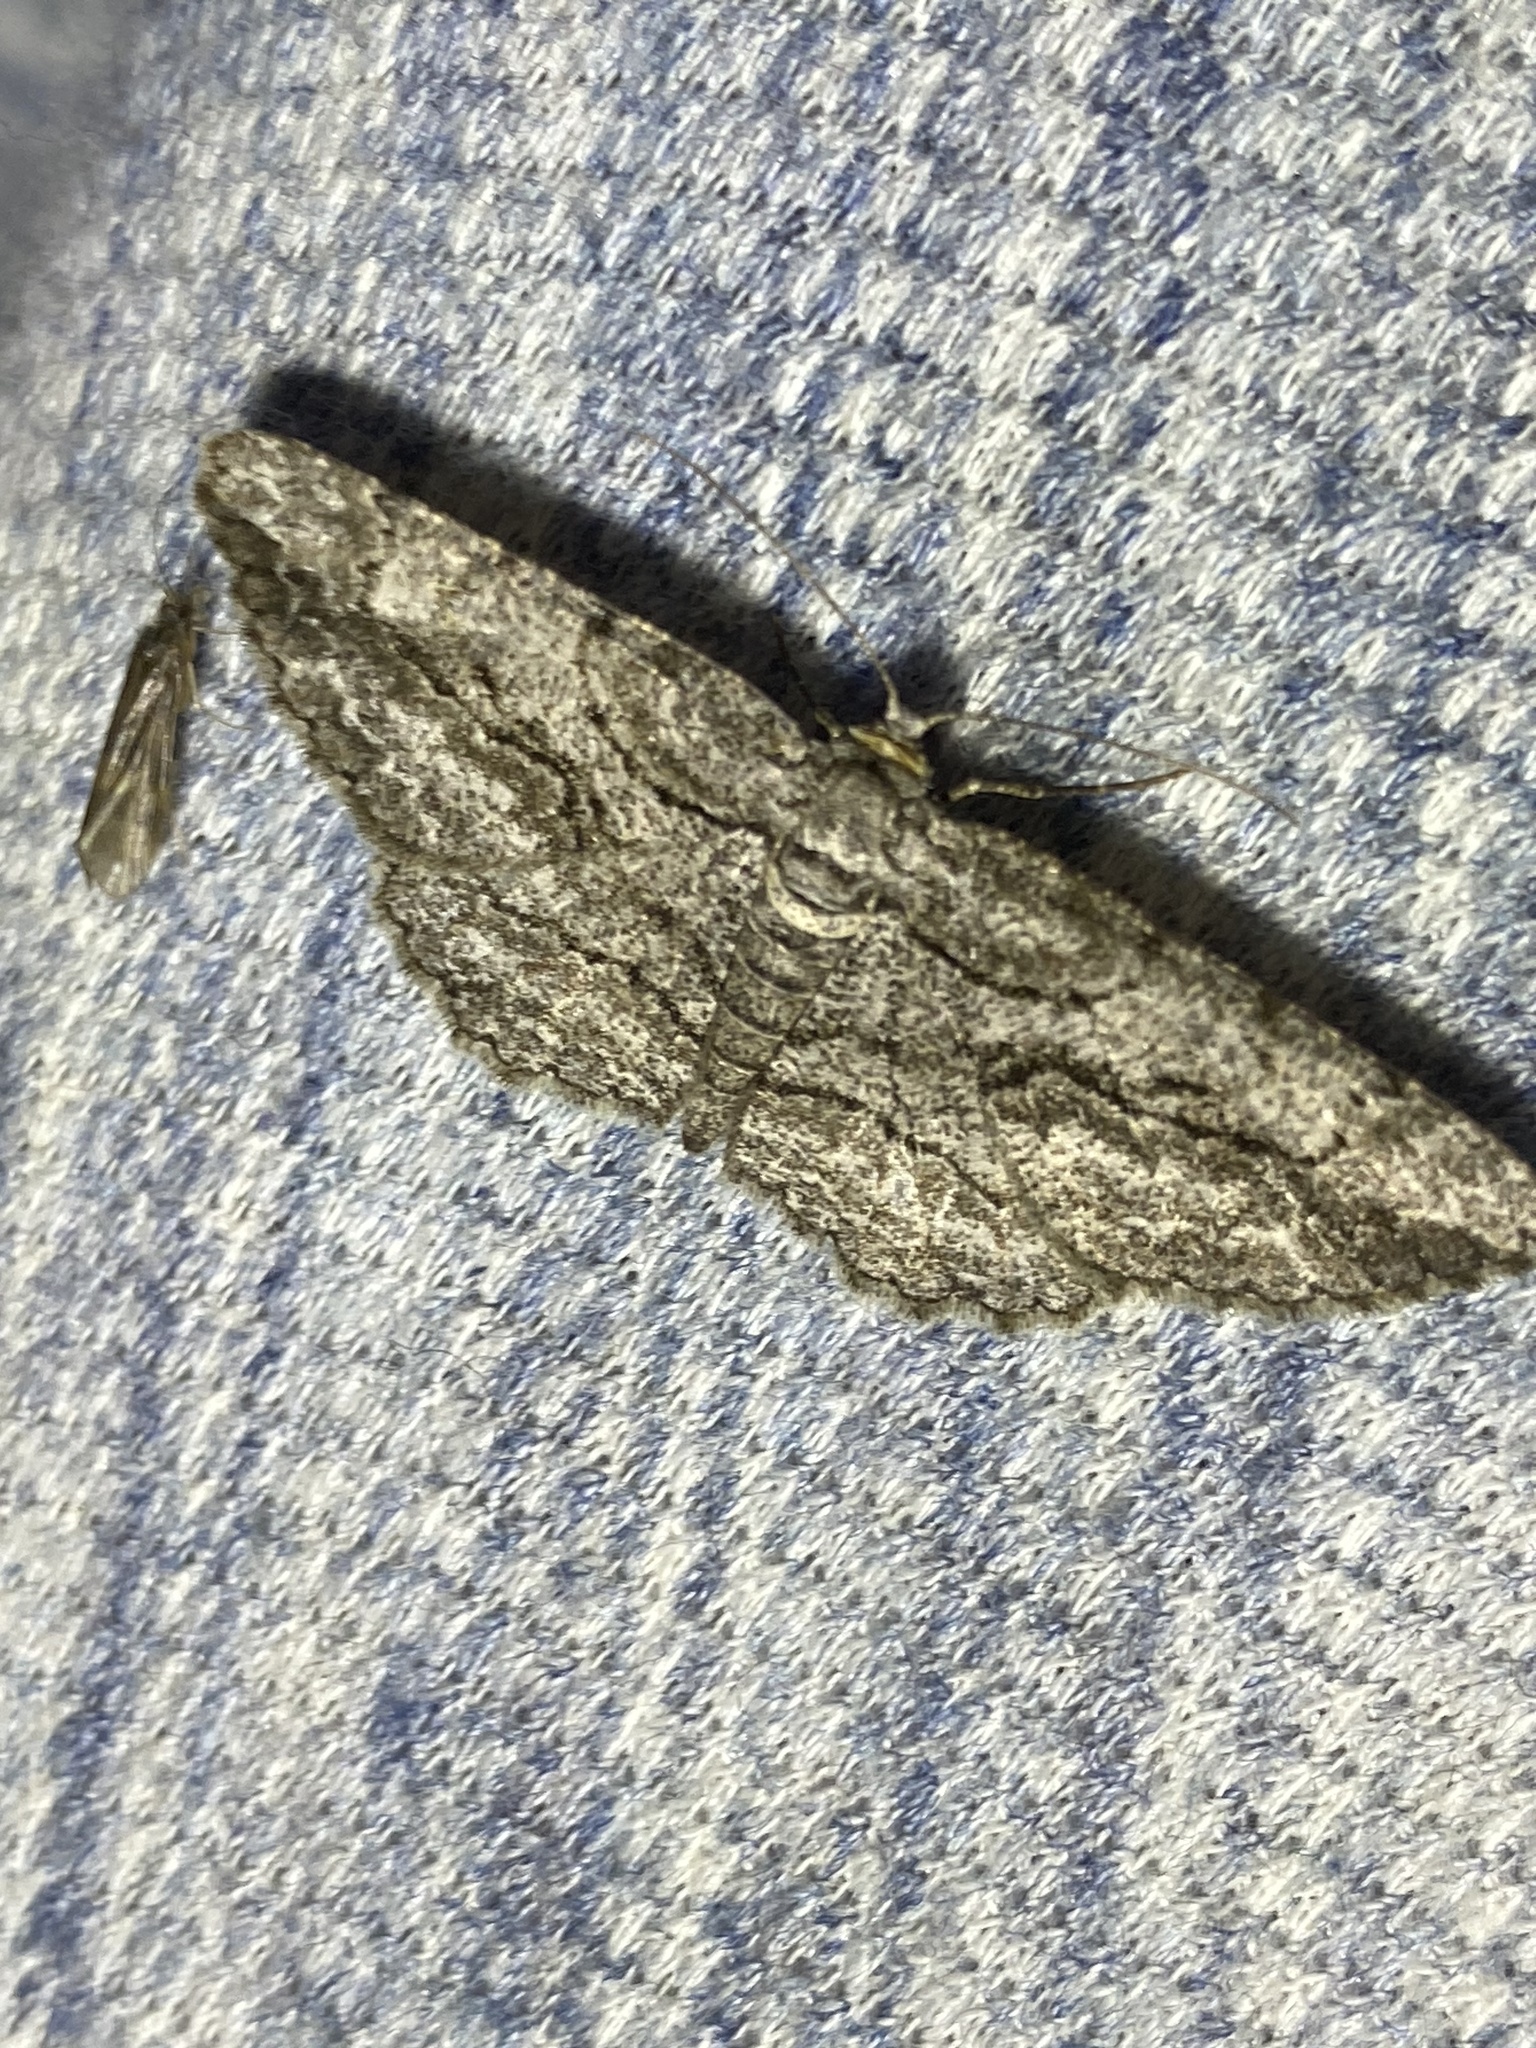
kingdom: Animalia
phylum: Arthropoda
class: Insecta
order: Lepidoptera
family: Geometridae
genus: Anavitrinella
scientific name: Anavitrinella pampinaria
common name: Common gray
